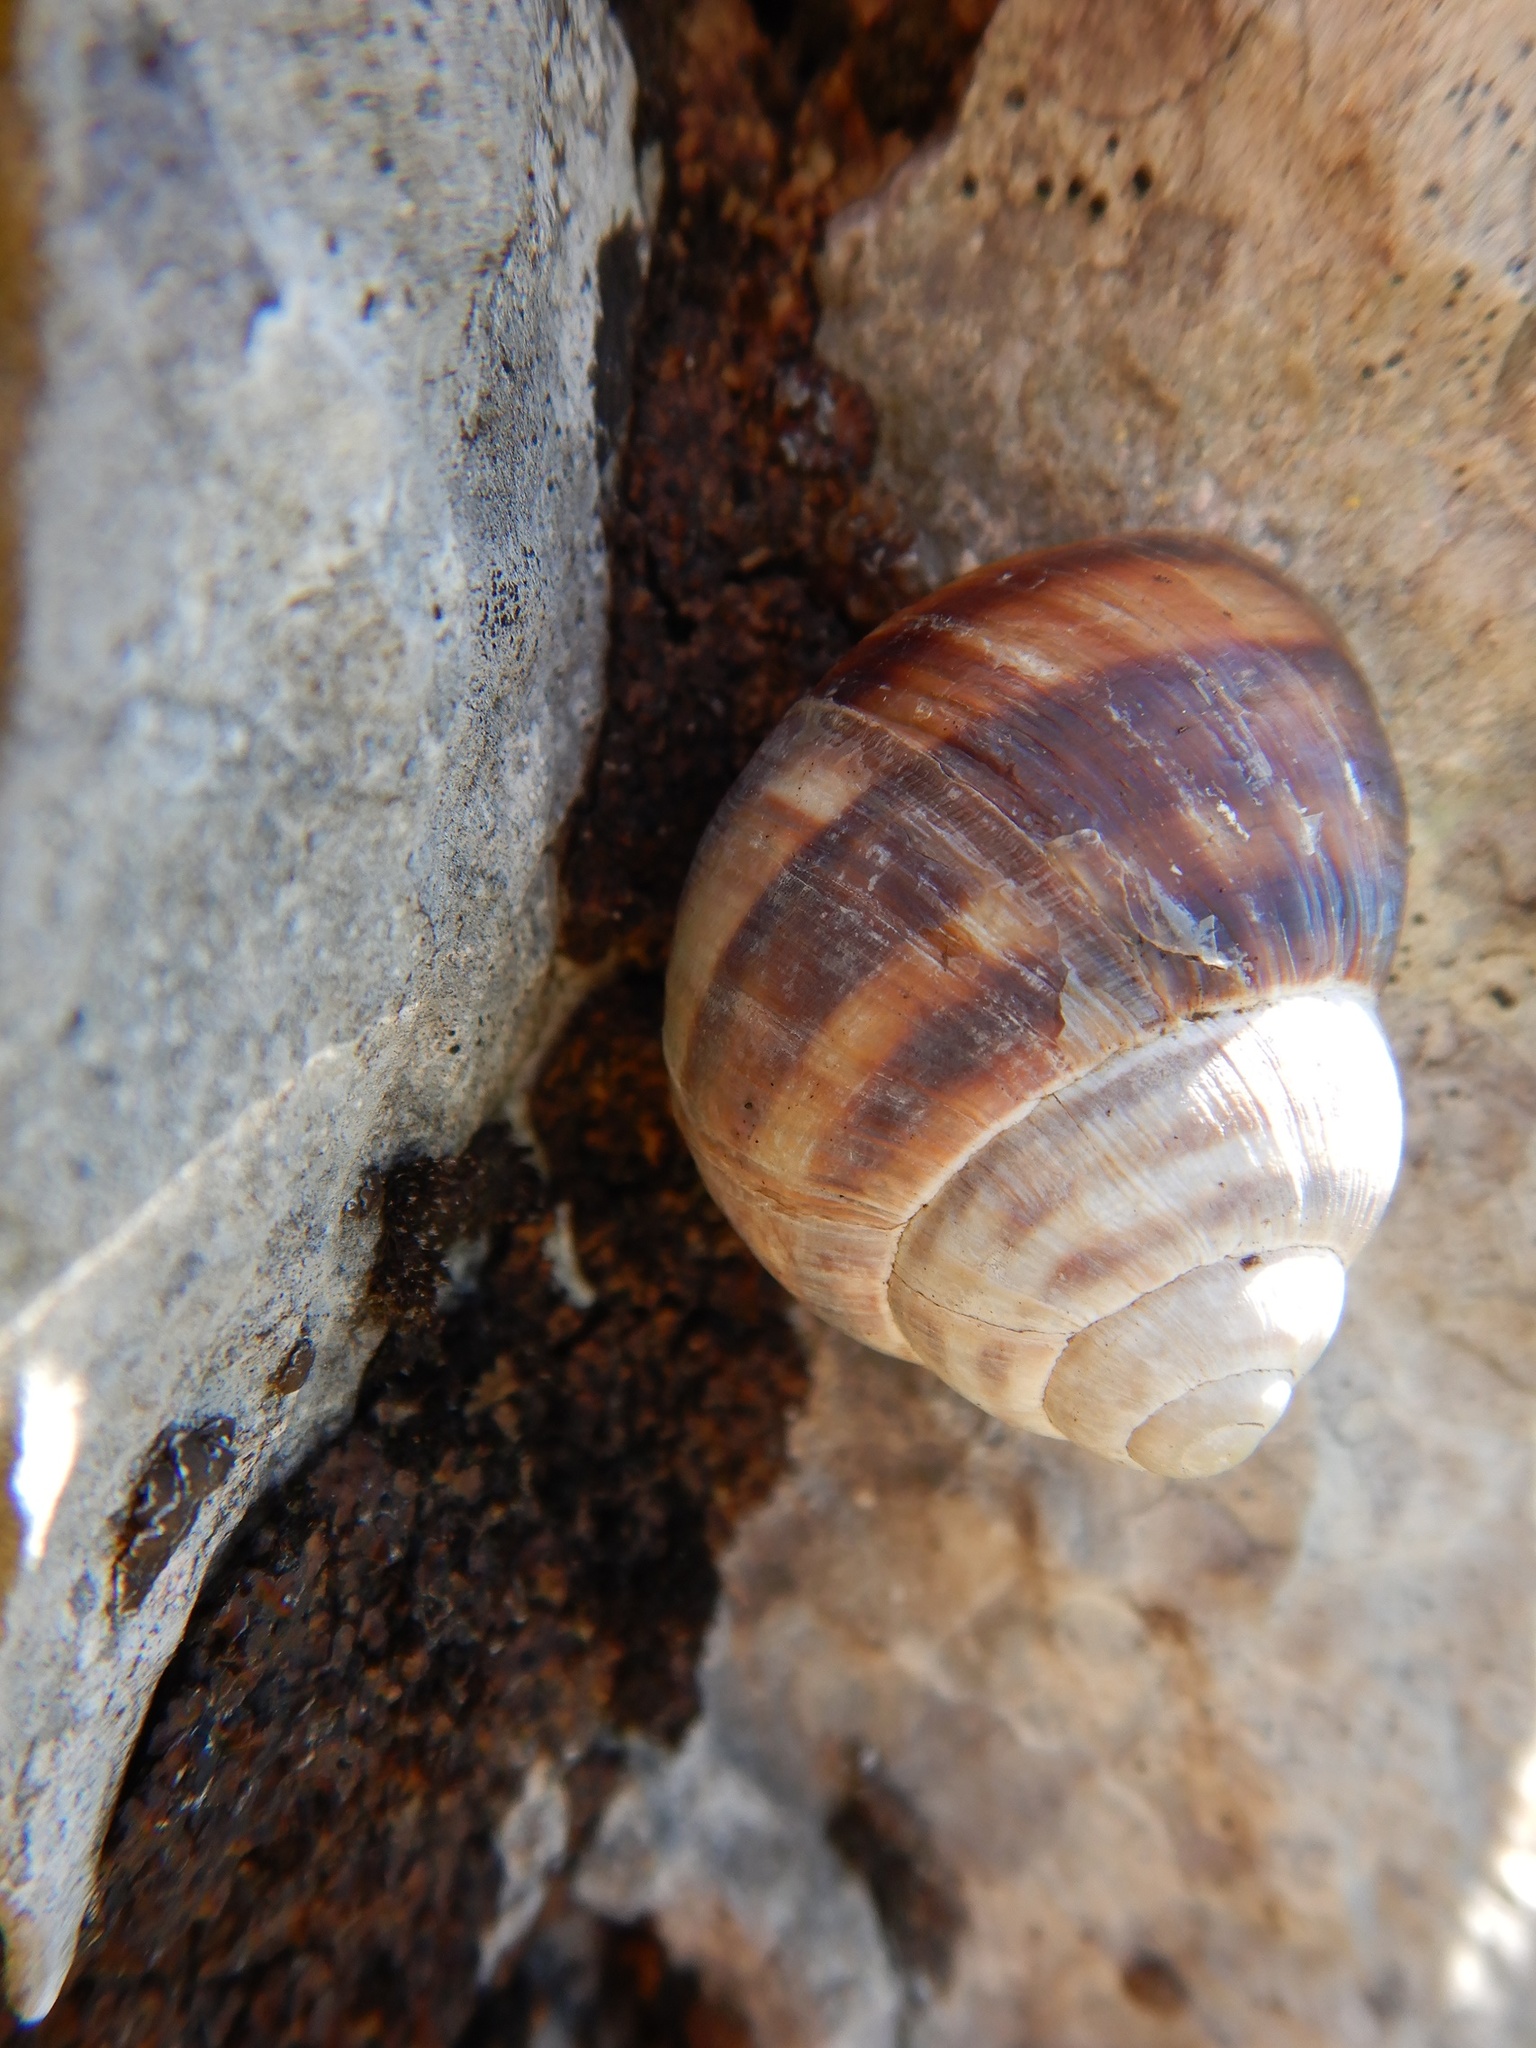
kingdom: Animalia
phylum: Mollusca
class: Gastropoda
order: Stylommatophora
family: Helicidae
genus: Helix
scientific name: Helix dormitoris
